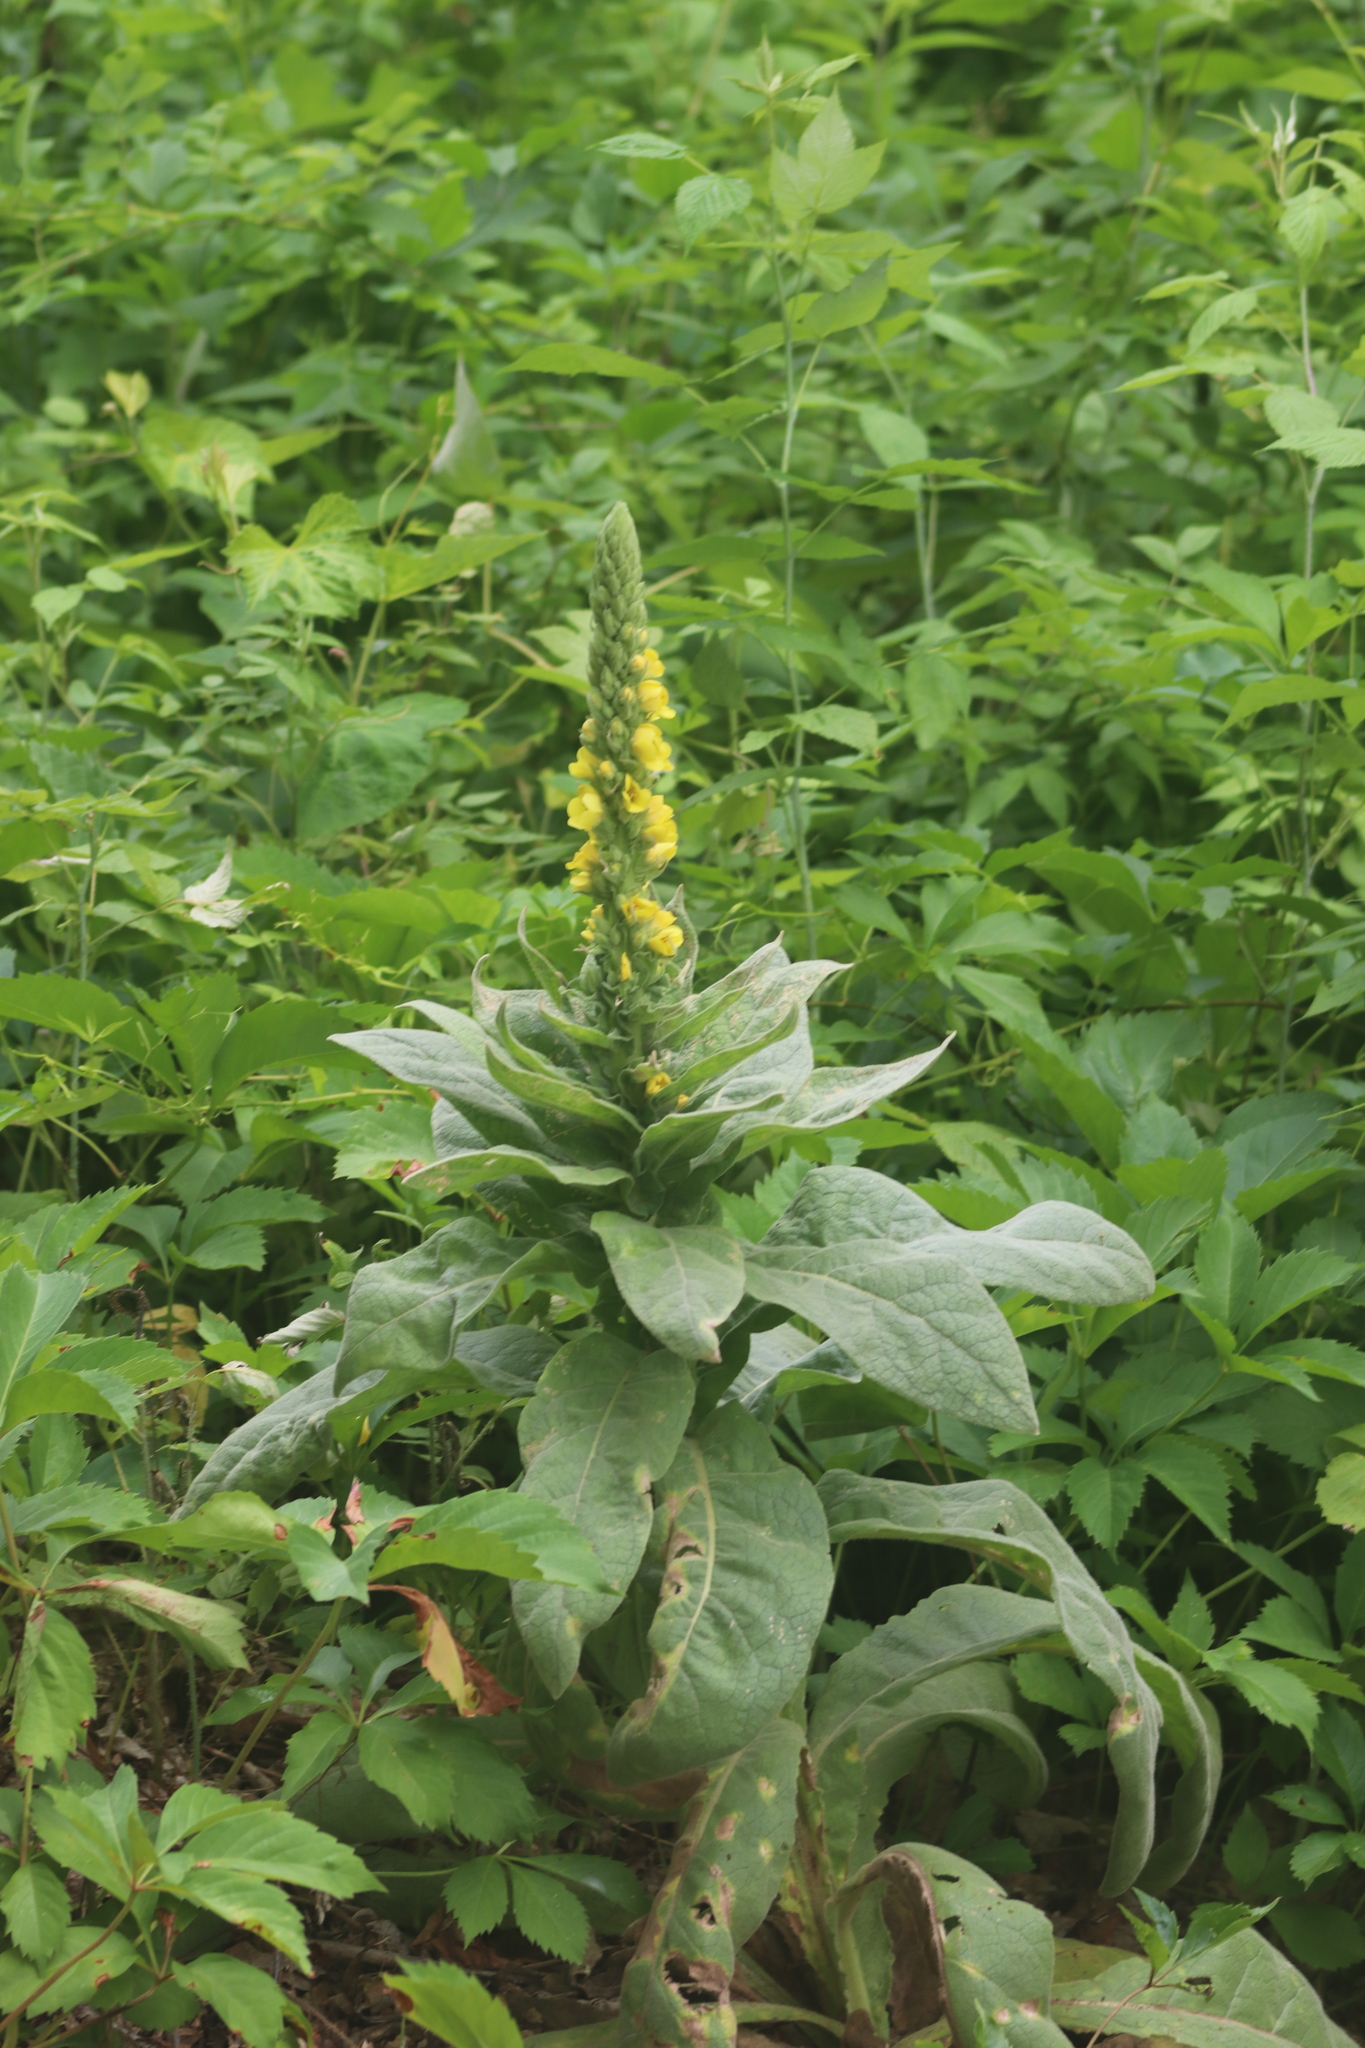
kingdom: Plantae
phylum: Tracheophyta
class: Magnoliopsida
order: Lamiales
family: Scrophulariaceae
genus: Verbascum
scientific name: Verbascum thapsus
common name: Common mullein
